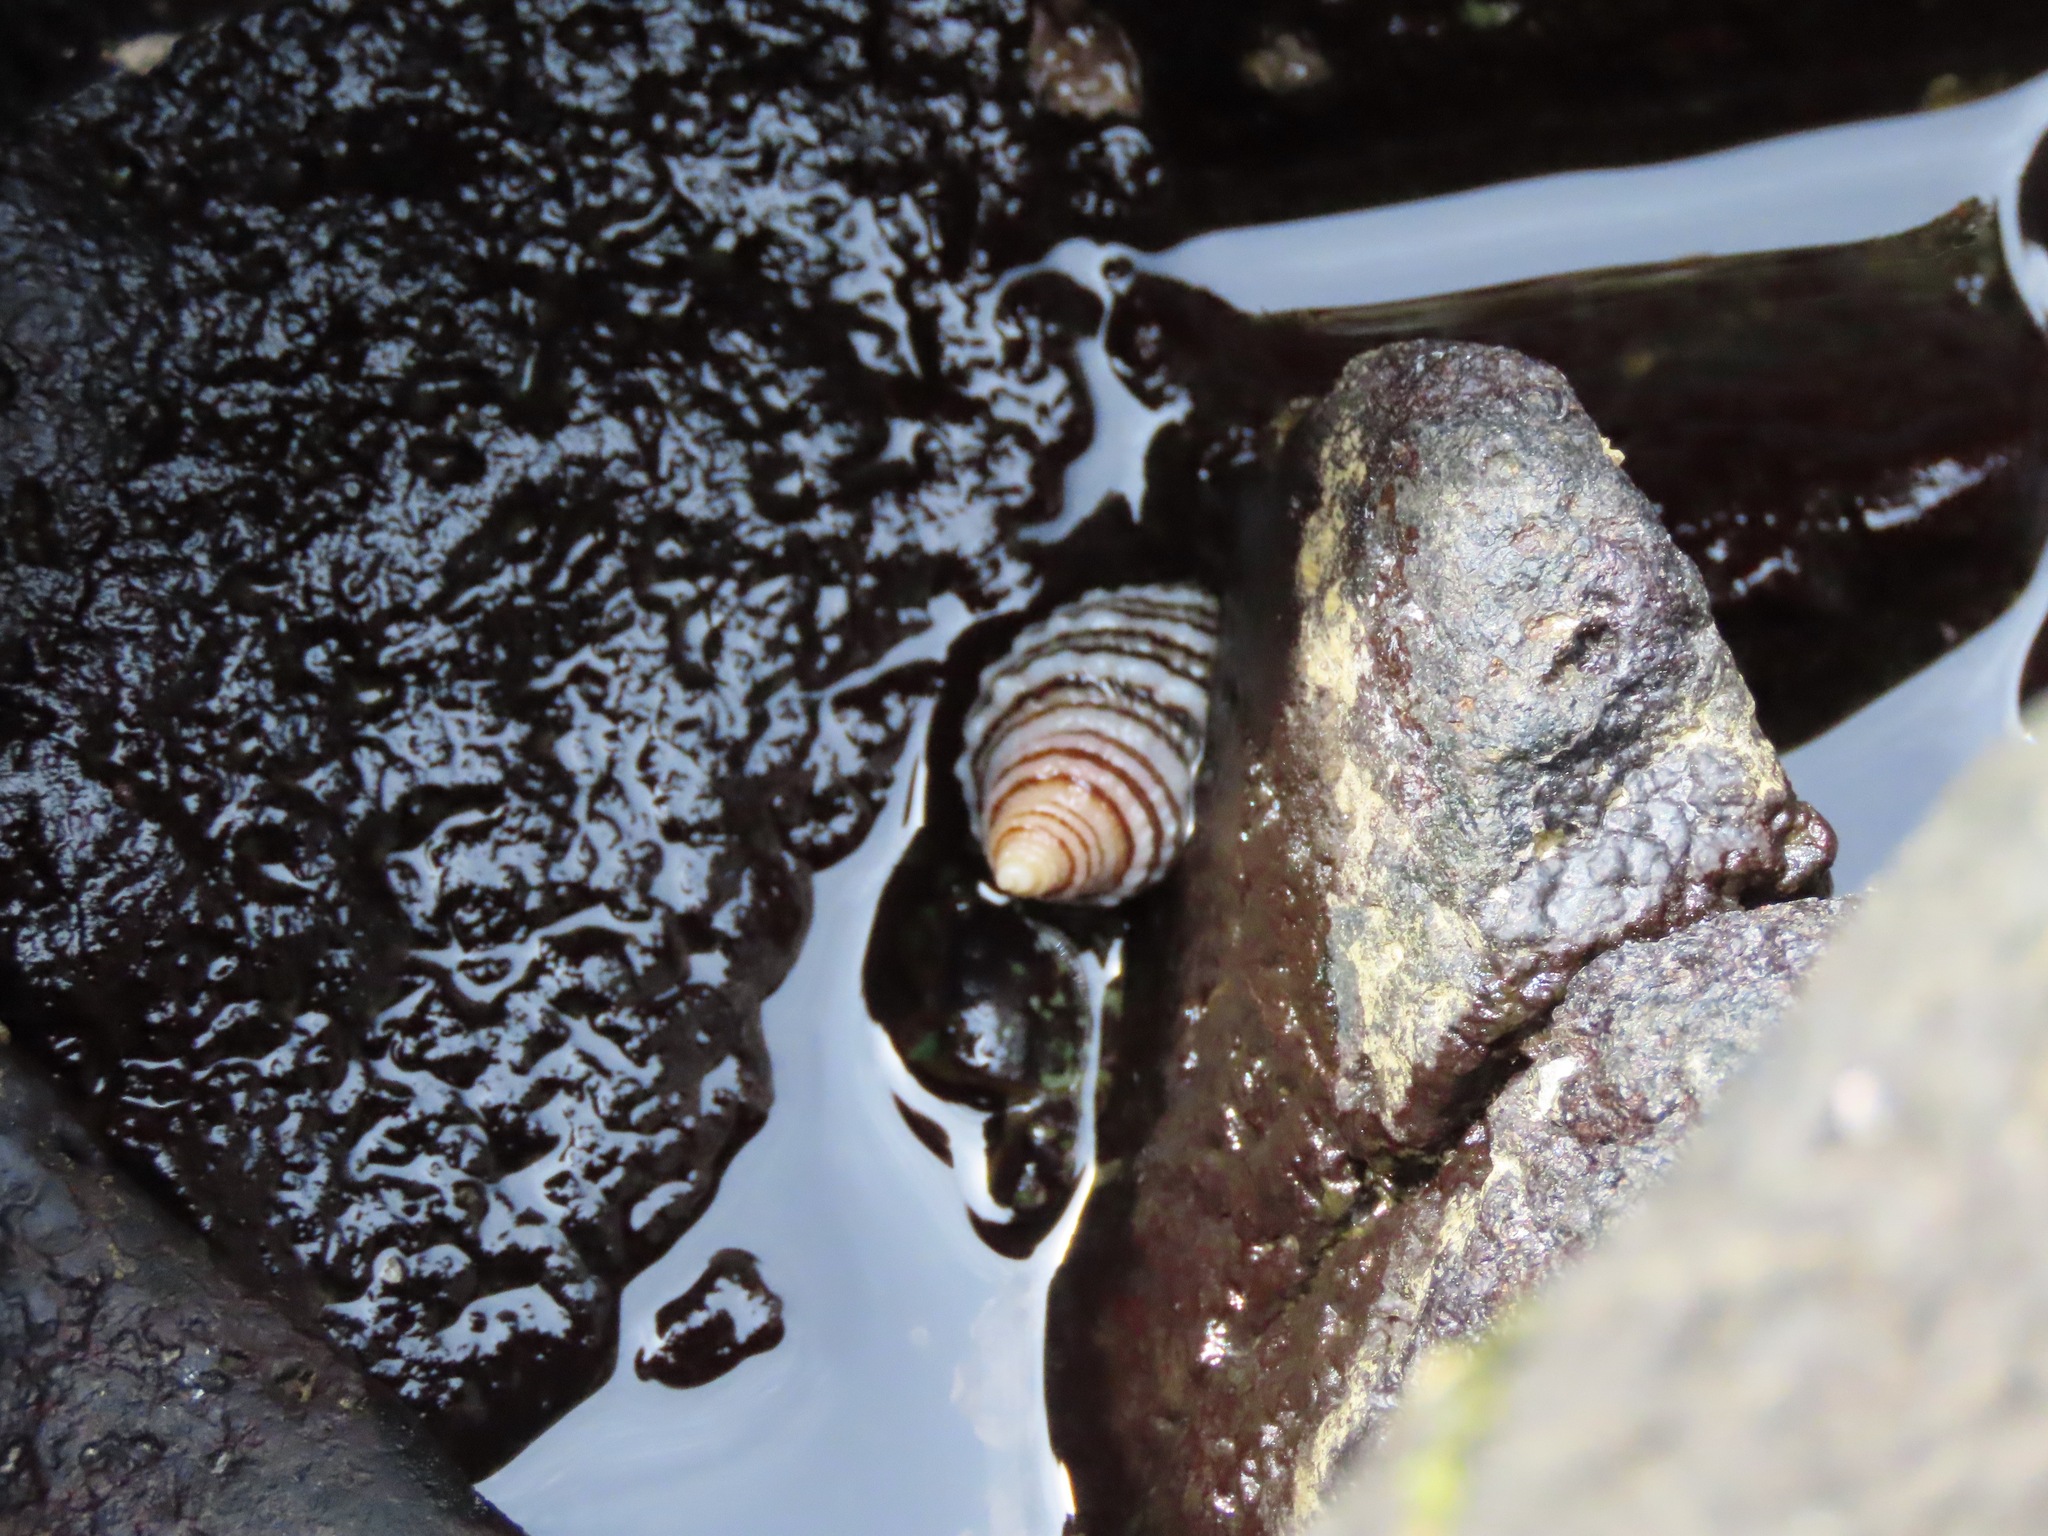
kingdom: Animalia
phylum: Mollusca
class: Gastropoda
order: Neogastropoda
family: Muricidae
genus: Nucella
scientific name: Nucella ostrina
